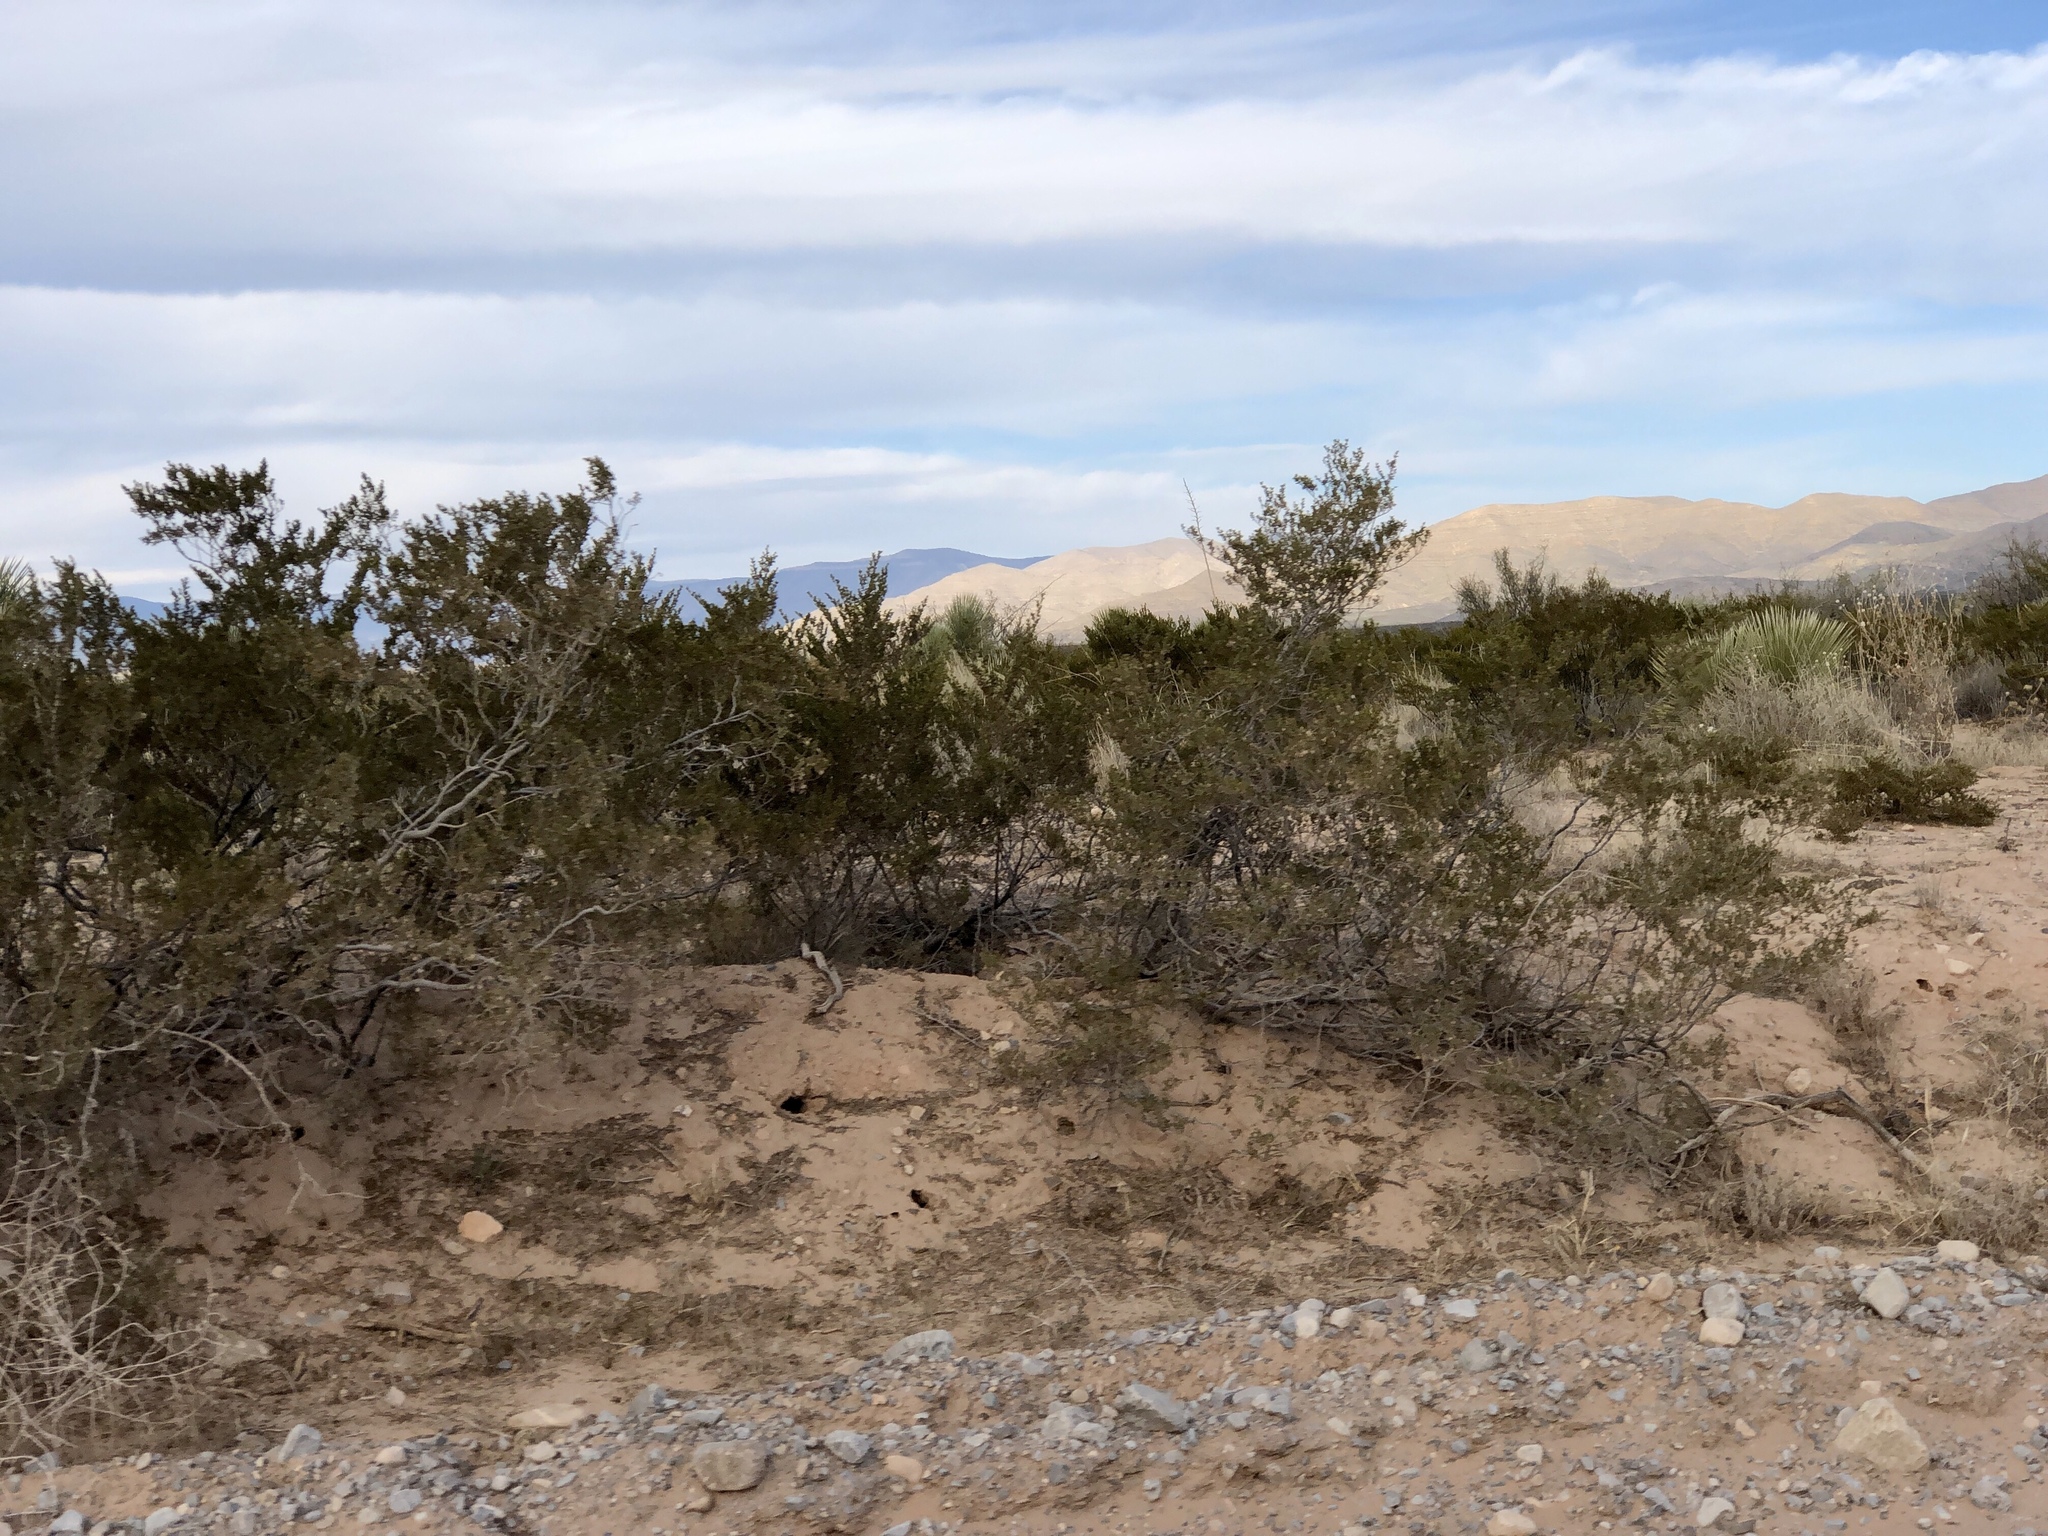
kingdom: Plantae
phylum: Tracheophyta
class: Magnoliopsida
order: Zygophyllales
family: Zygophyllaceae
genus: Larrea
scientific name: Larrea tridentata
